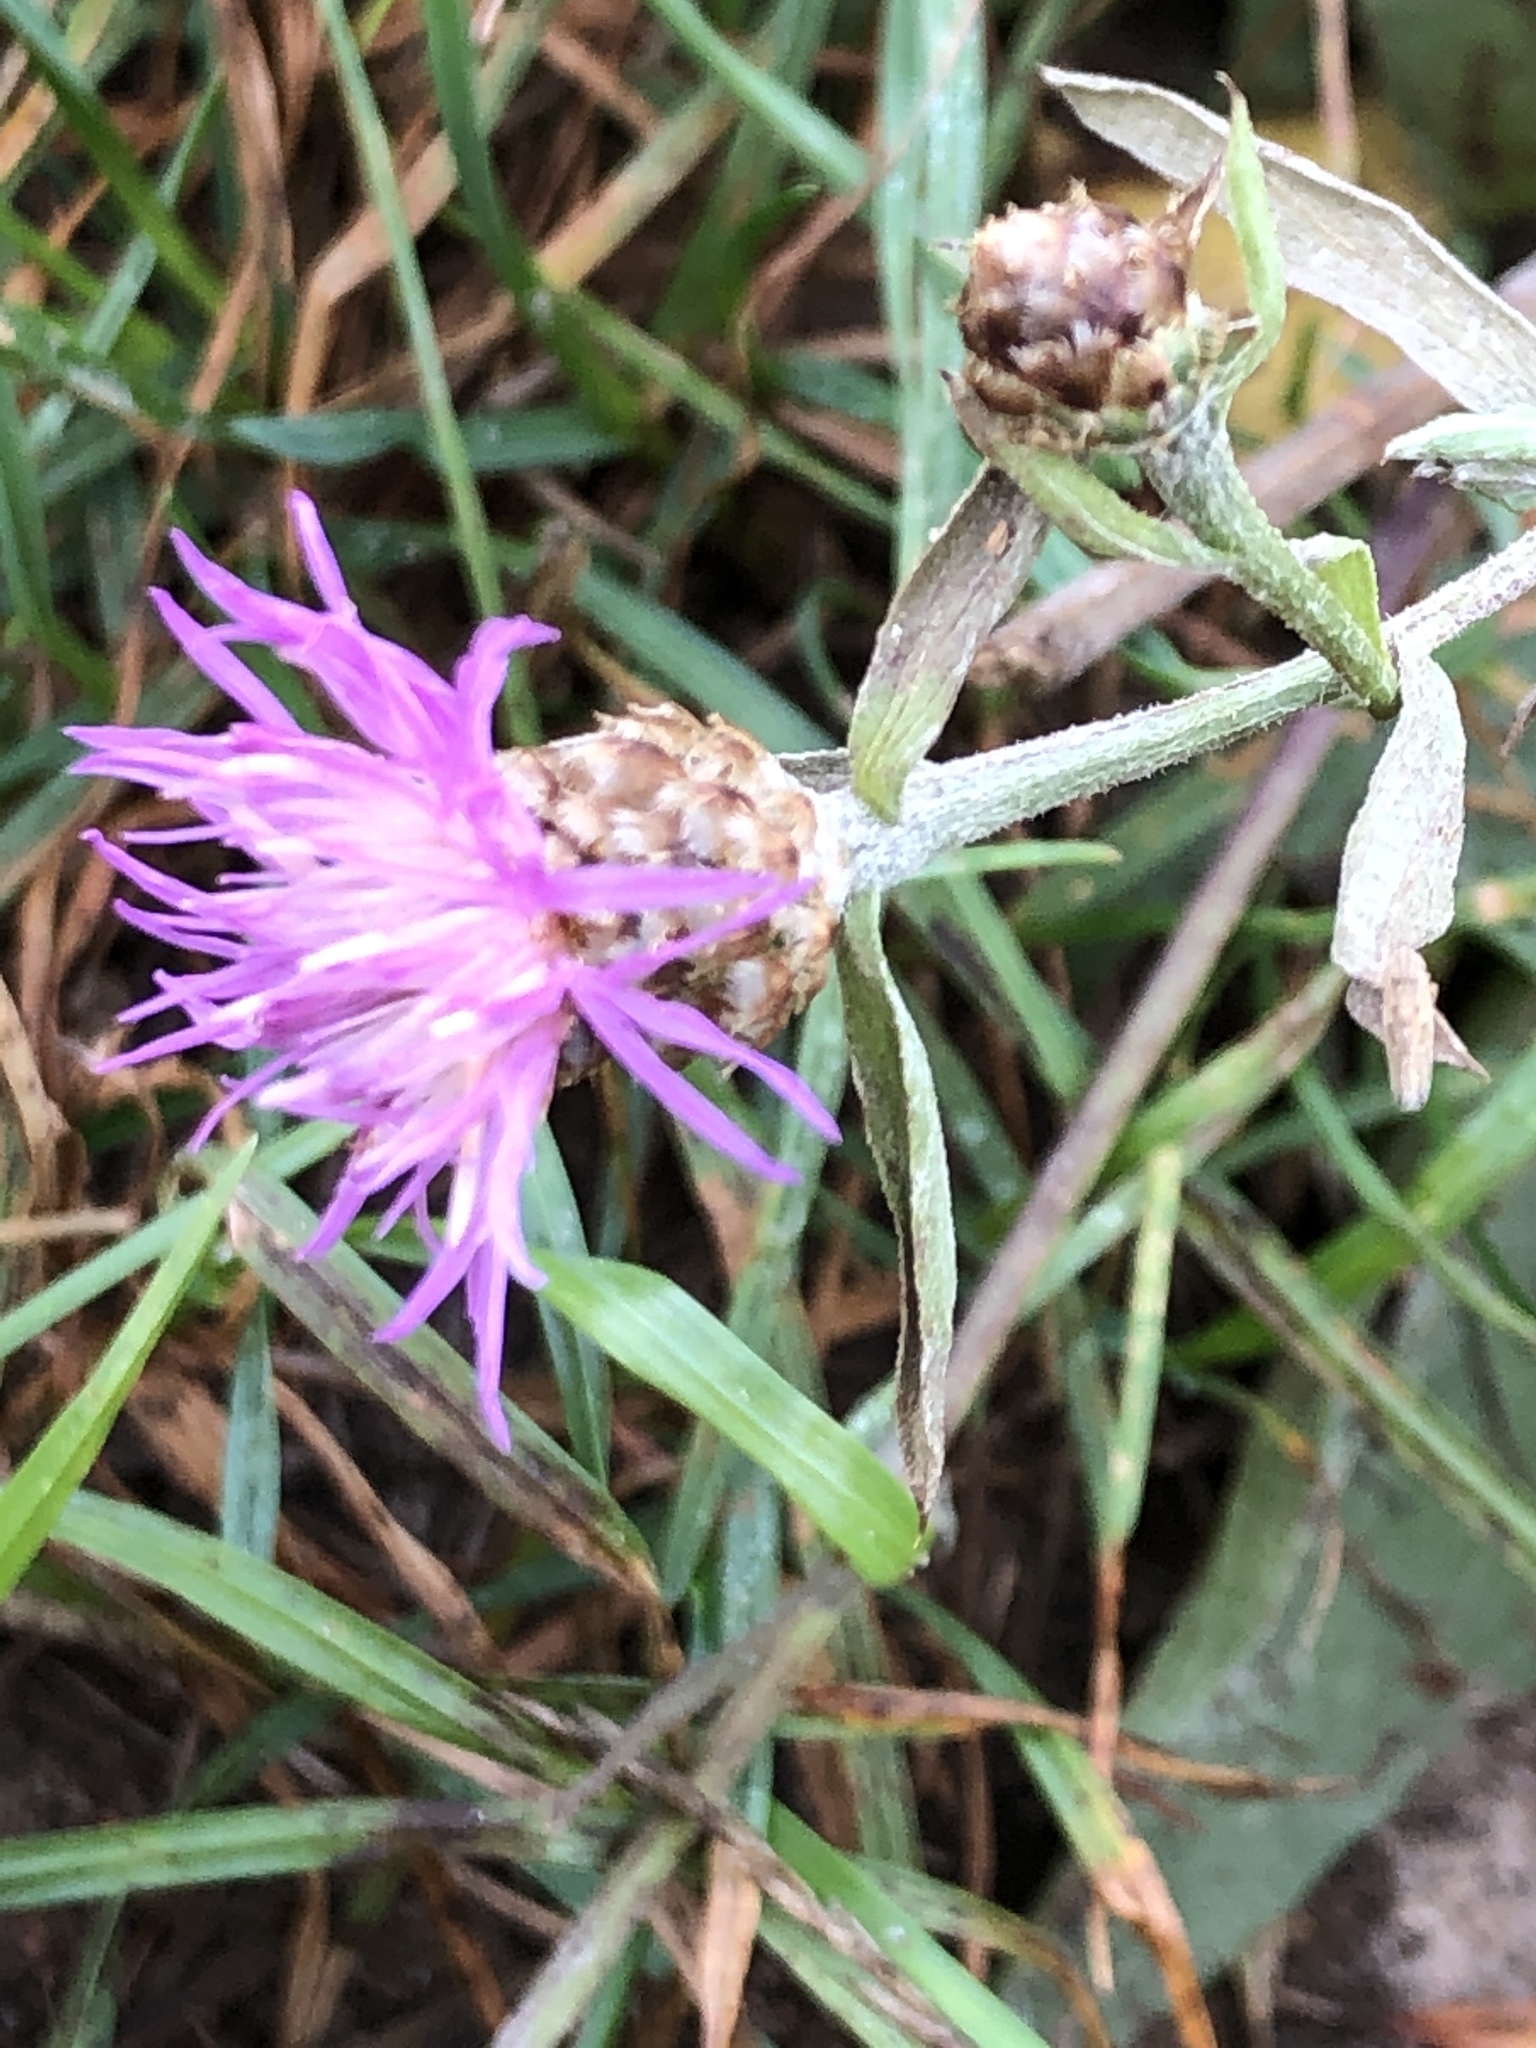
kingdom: Plantae
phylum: Tracheophyta
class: Magnoliopsida
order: Asterales
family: Asteraceae
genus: Centaurea
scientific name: Centaurea jacea
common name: Brown knapweed
